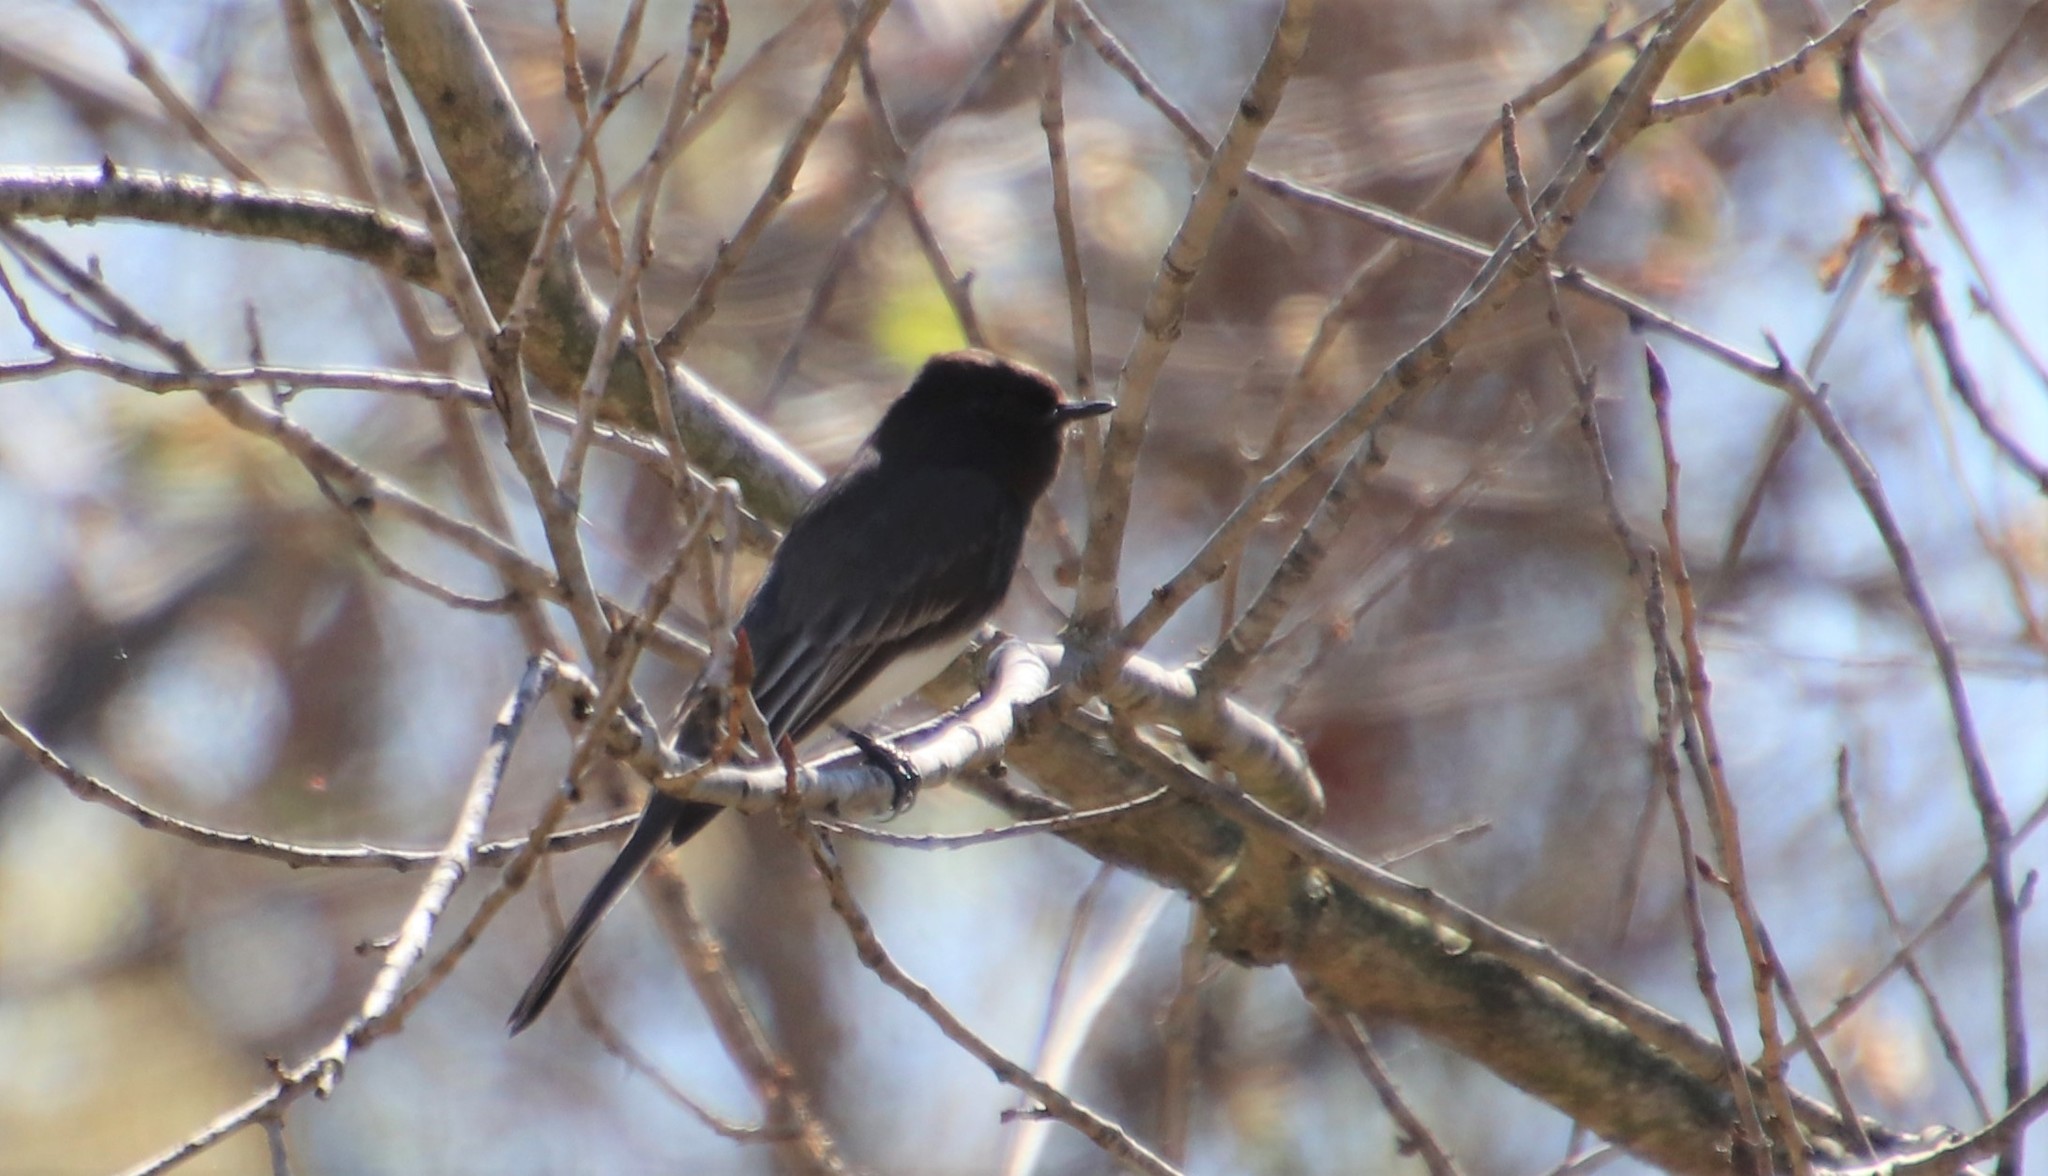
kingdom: Animalia
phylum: Chordata
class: Aves
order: Passeriformes
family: Tyrannidae
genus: Sayornis
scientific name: Sayornis nigricans
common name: Black phoebe
